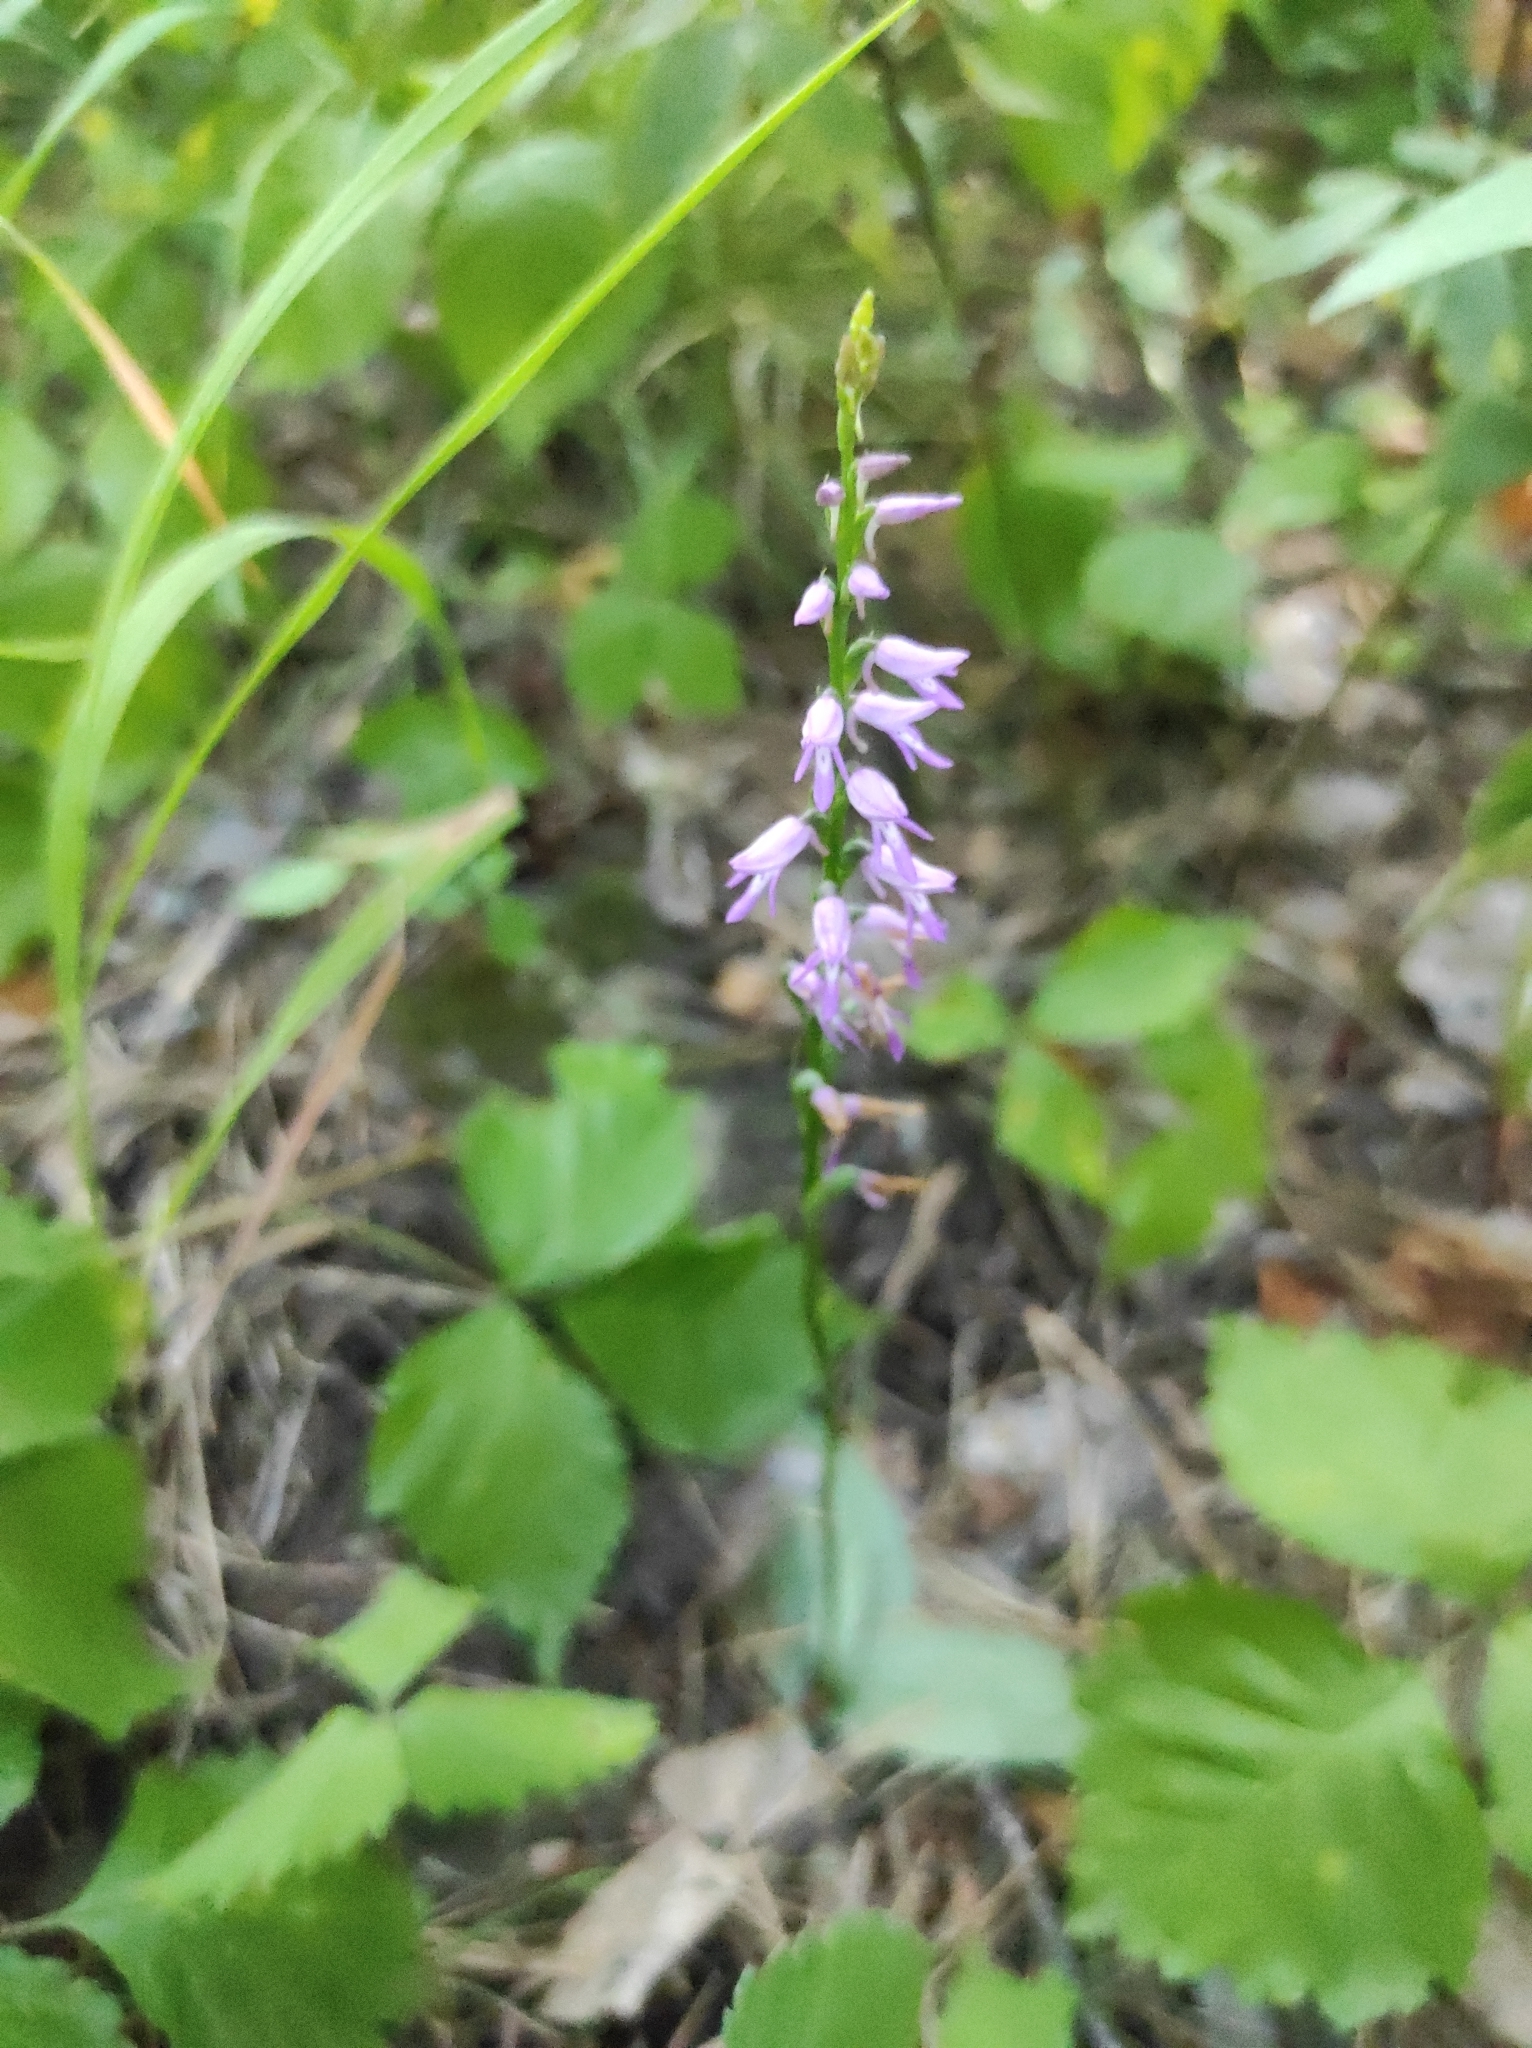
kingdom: Plantae
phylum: Tracheophyta
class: Liliopsida
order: Asparagales
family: Orchidaceae
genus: Hemipilia
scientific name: Hemipilia cucullata
